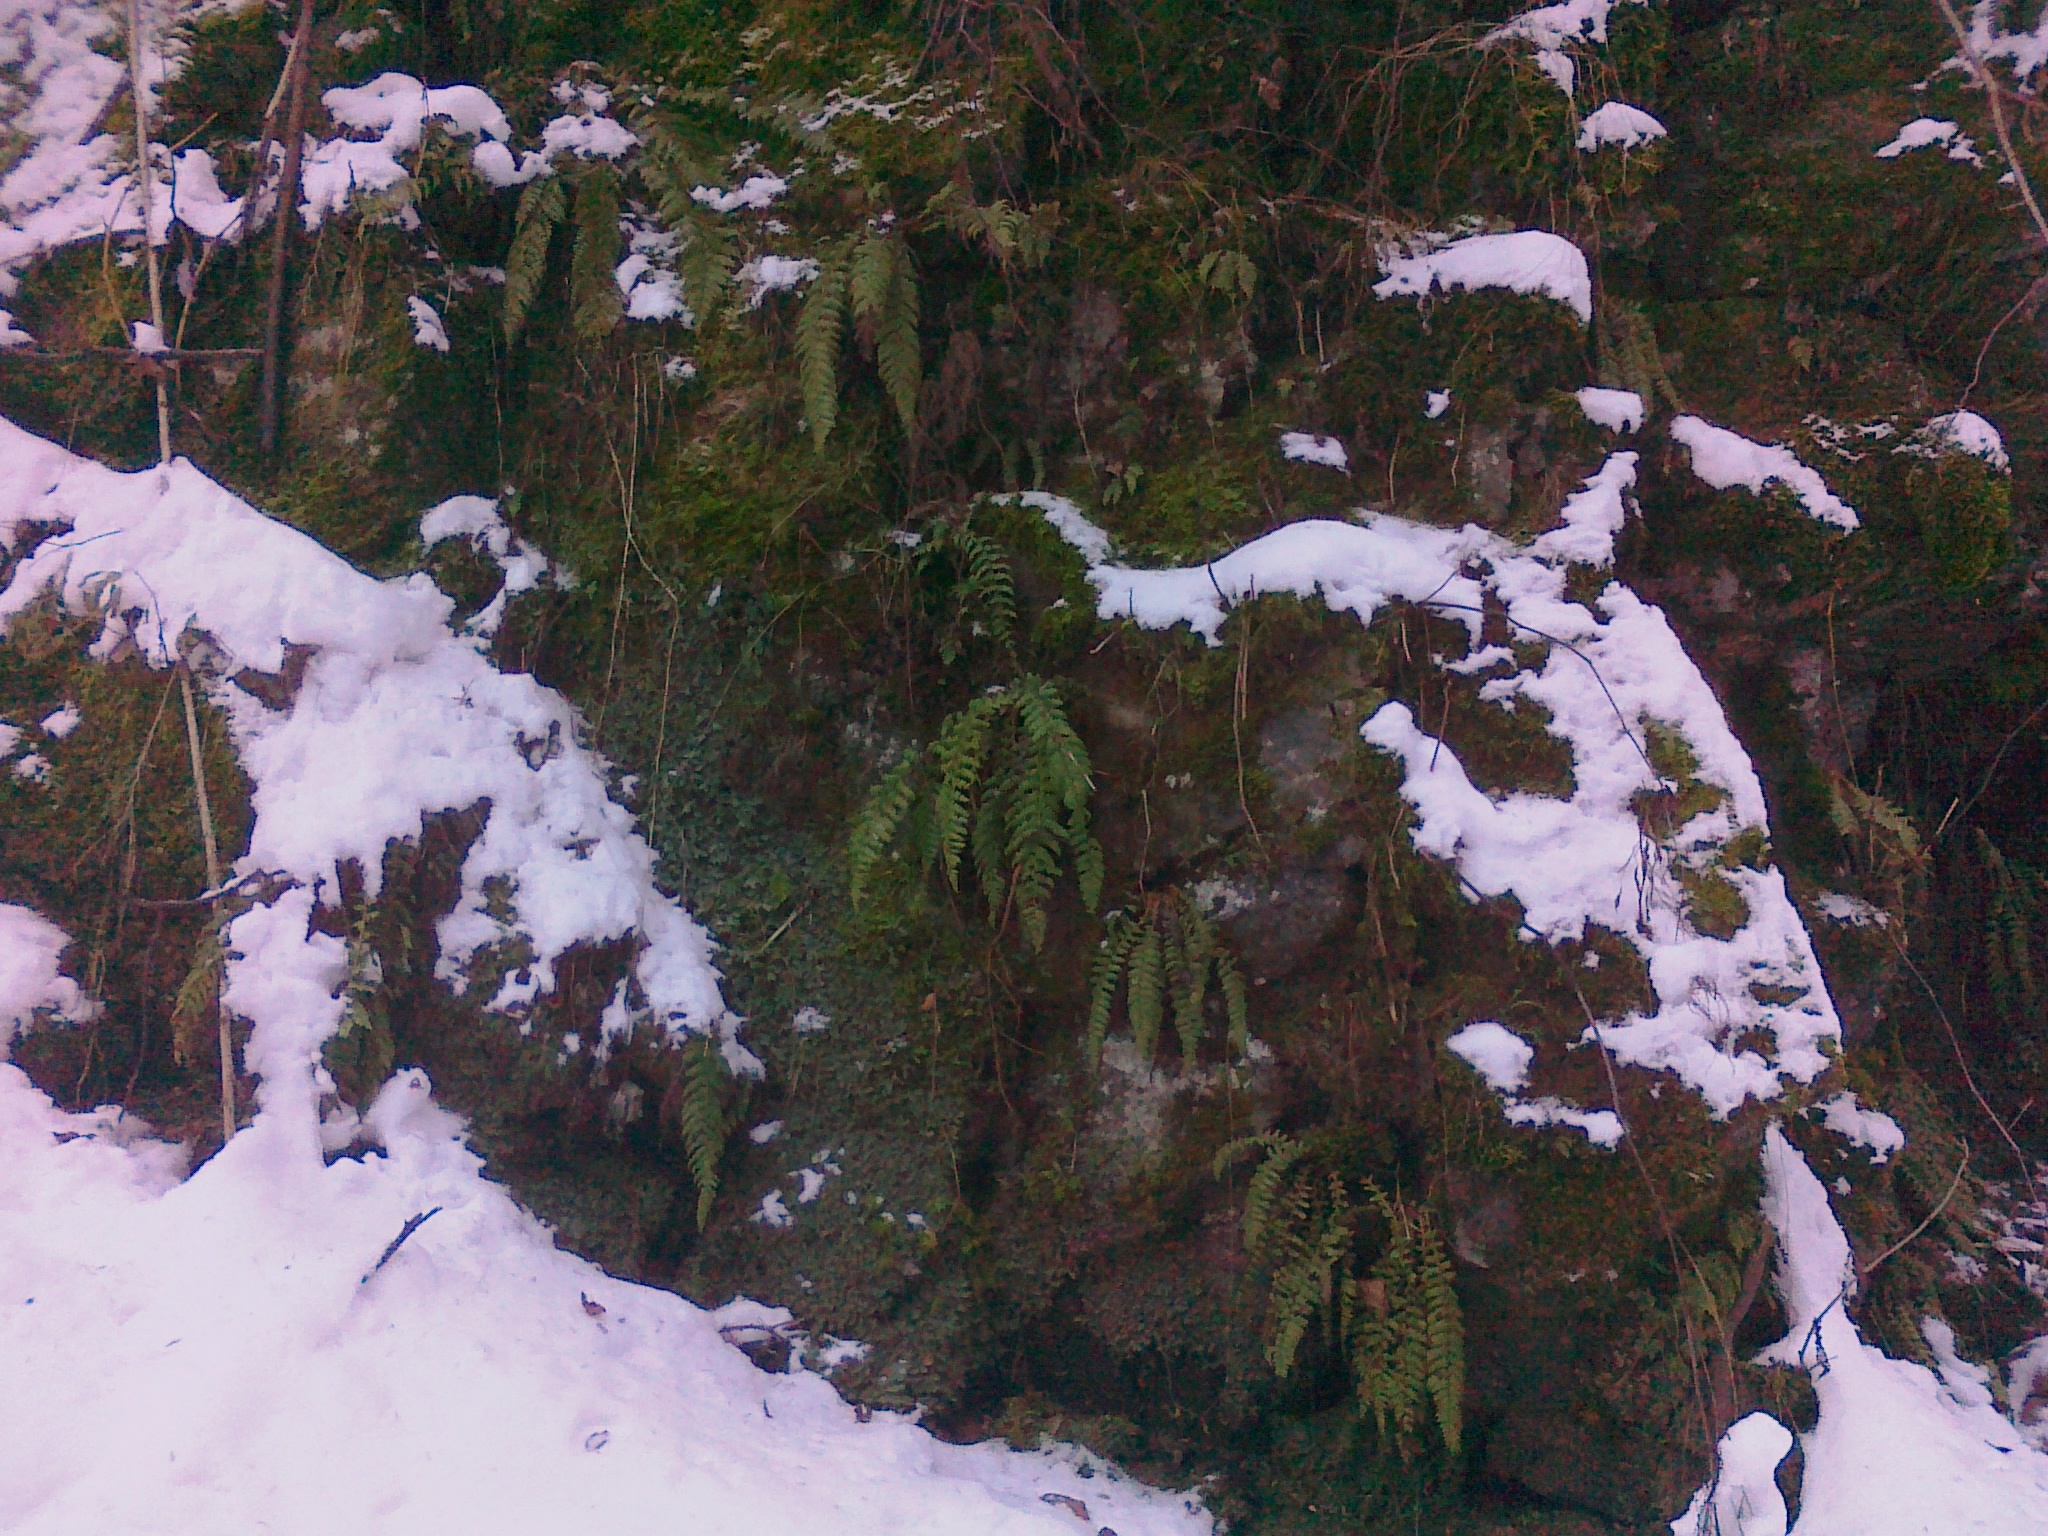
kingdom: Plantae
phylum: Tracheophyta
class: Polypodiopsida
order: Polypodiales
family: Dryopteridaceae
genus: Polystichum
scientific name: Polystichum braunii
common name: Braun's holly fern
